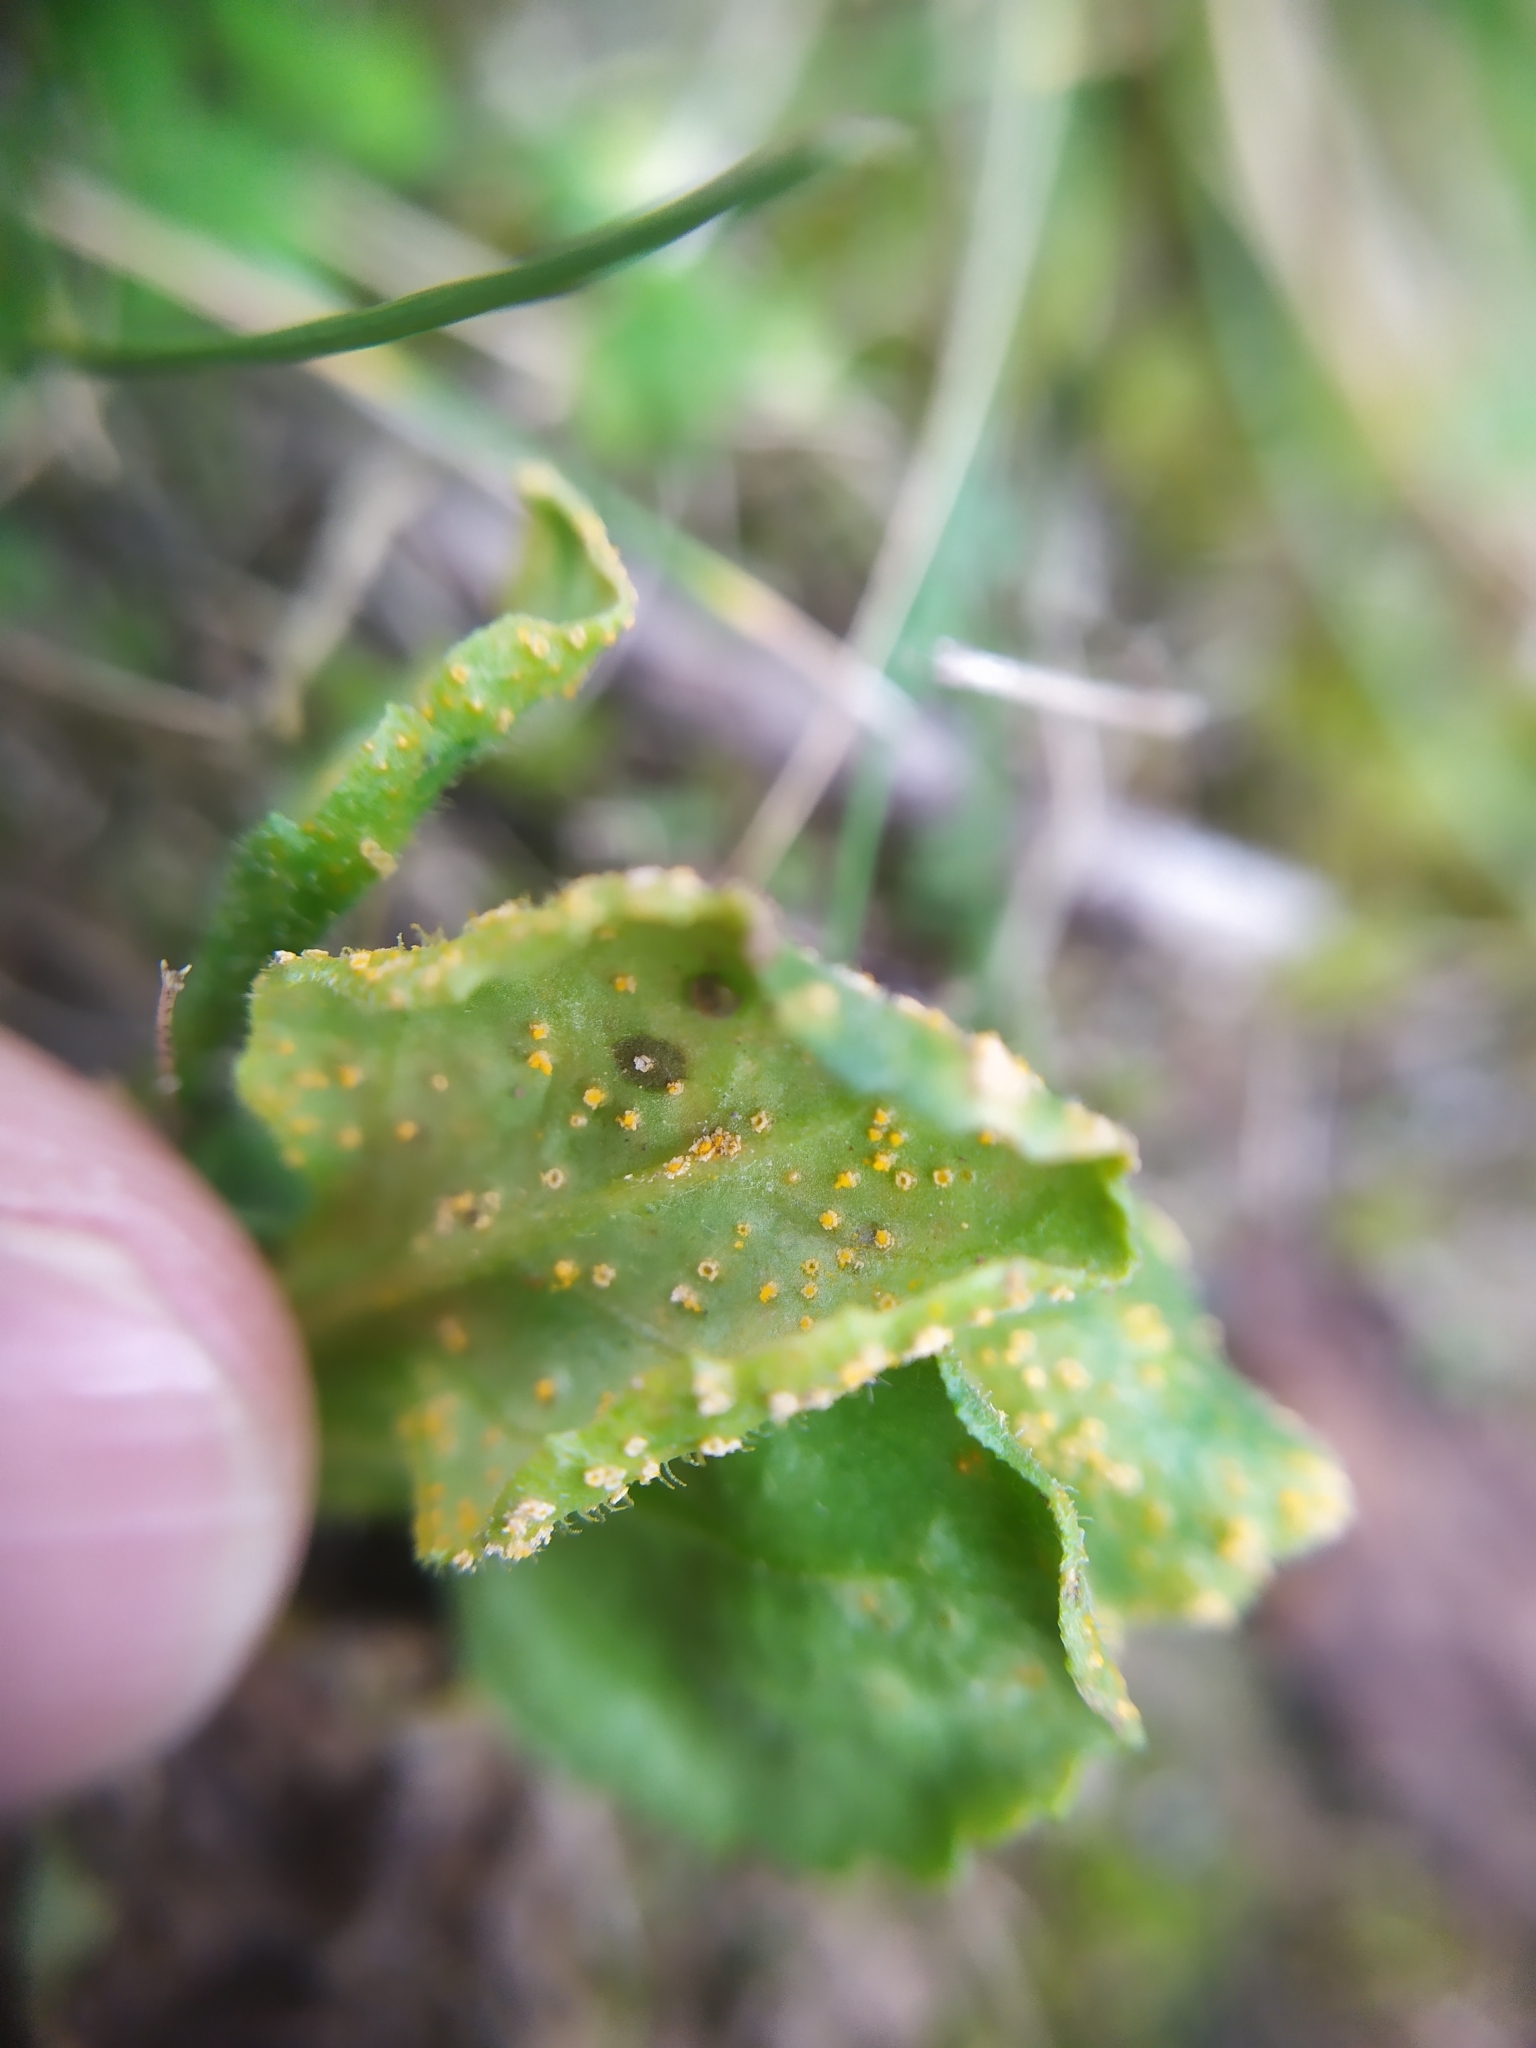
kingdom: Fungi
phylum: Basidiomycota
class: Pucciniomycetes
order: Pucciniales
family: Pucciniaceae
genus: Puccinia
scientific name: Puccinia lagenophorae
